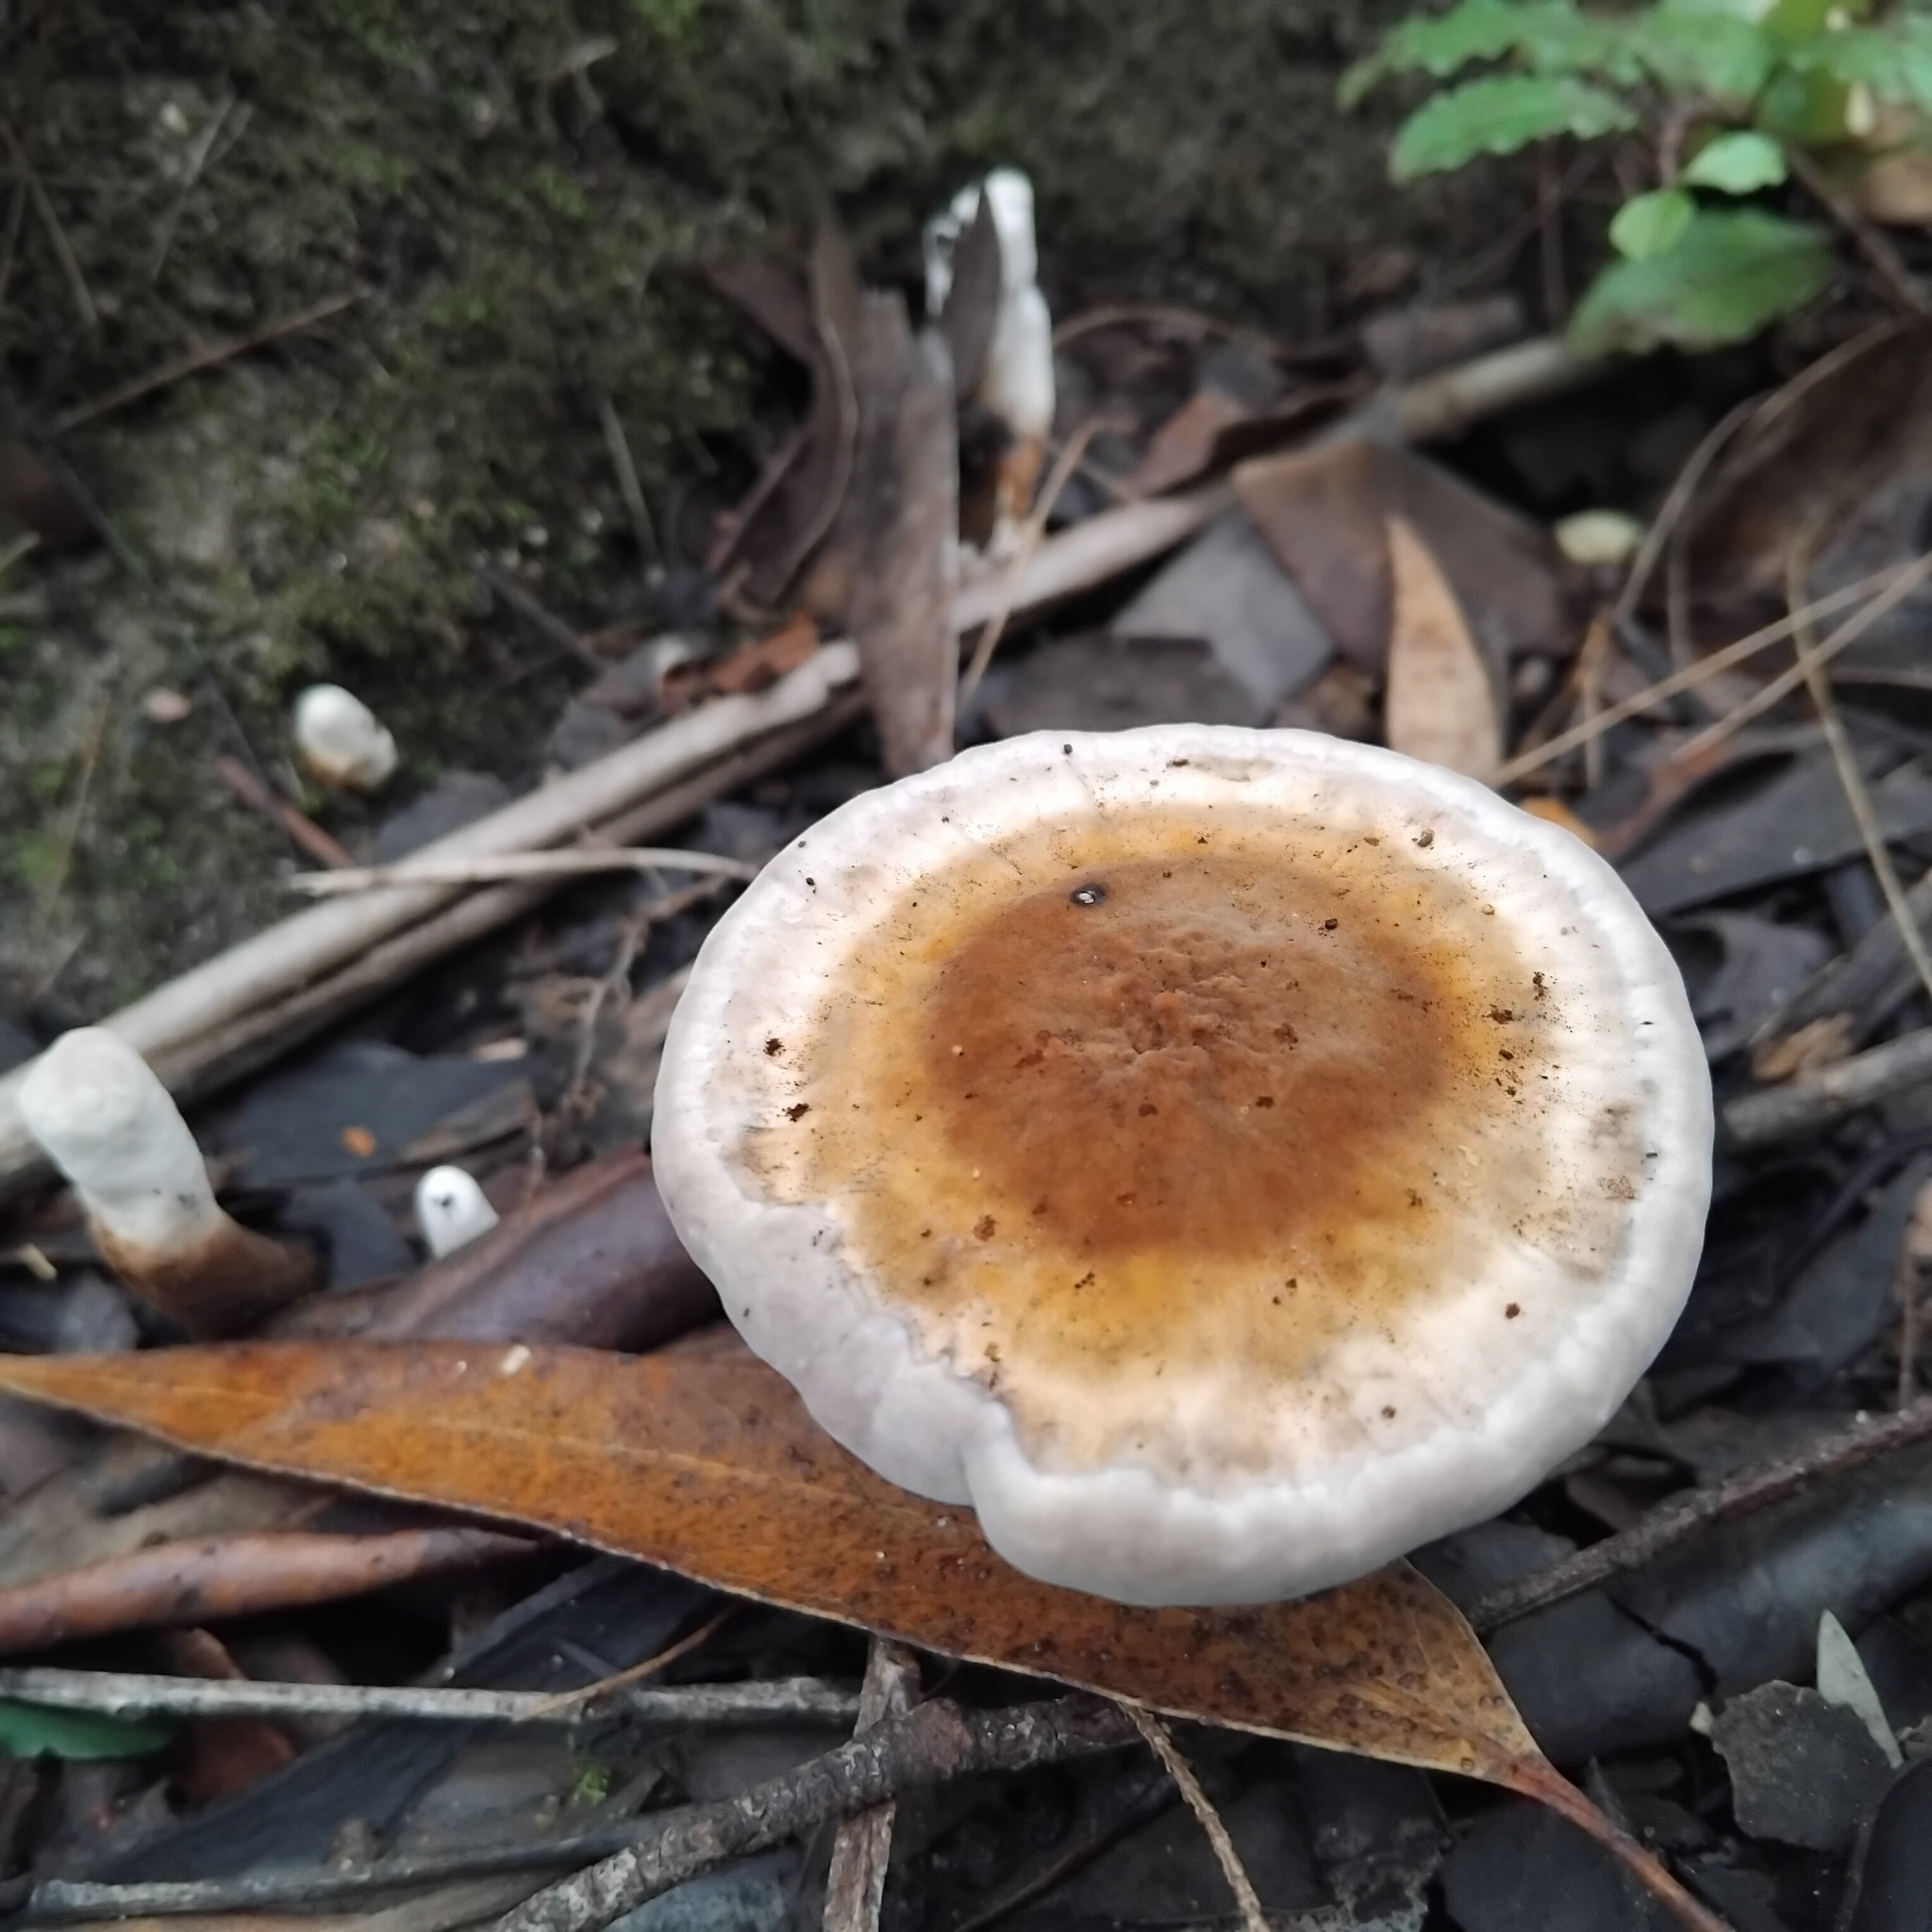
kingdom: Fungi
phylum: Basidiomycota
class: Agaricomycetes
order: Polyporales
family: Ganodermataceae
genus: Sanguinoderma
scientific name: Sanguinoderma rude
